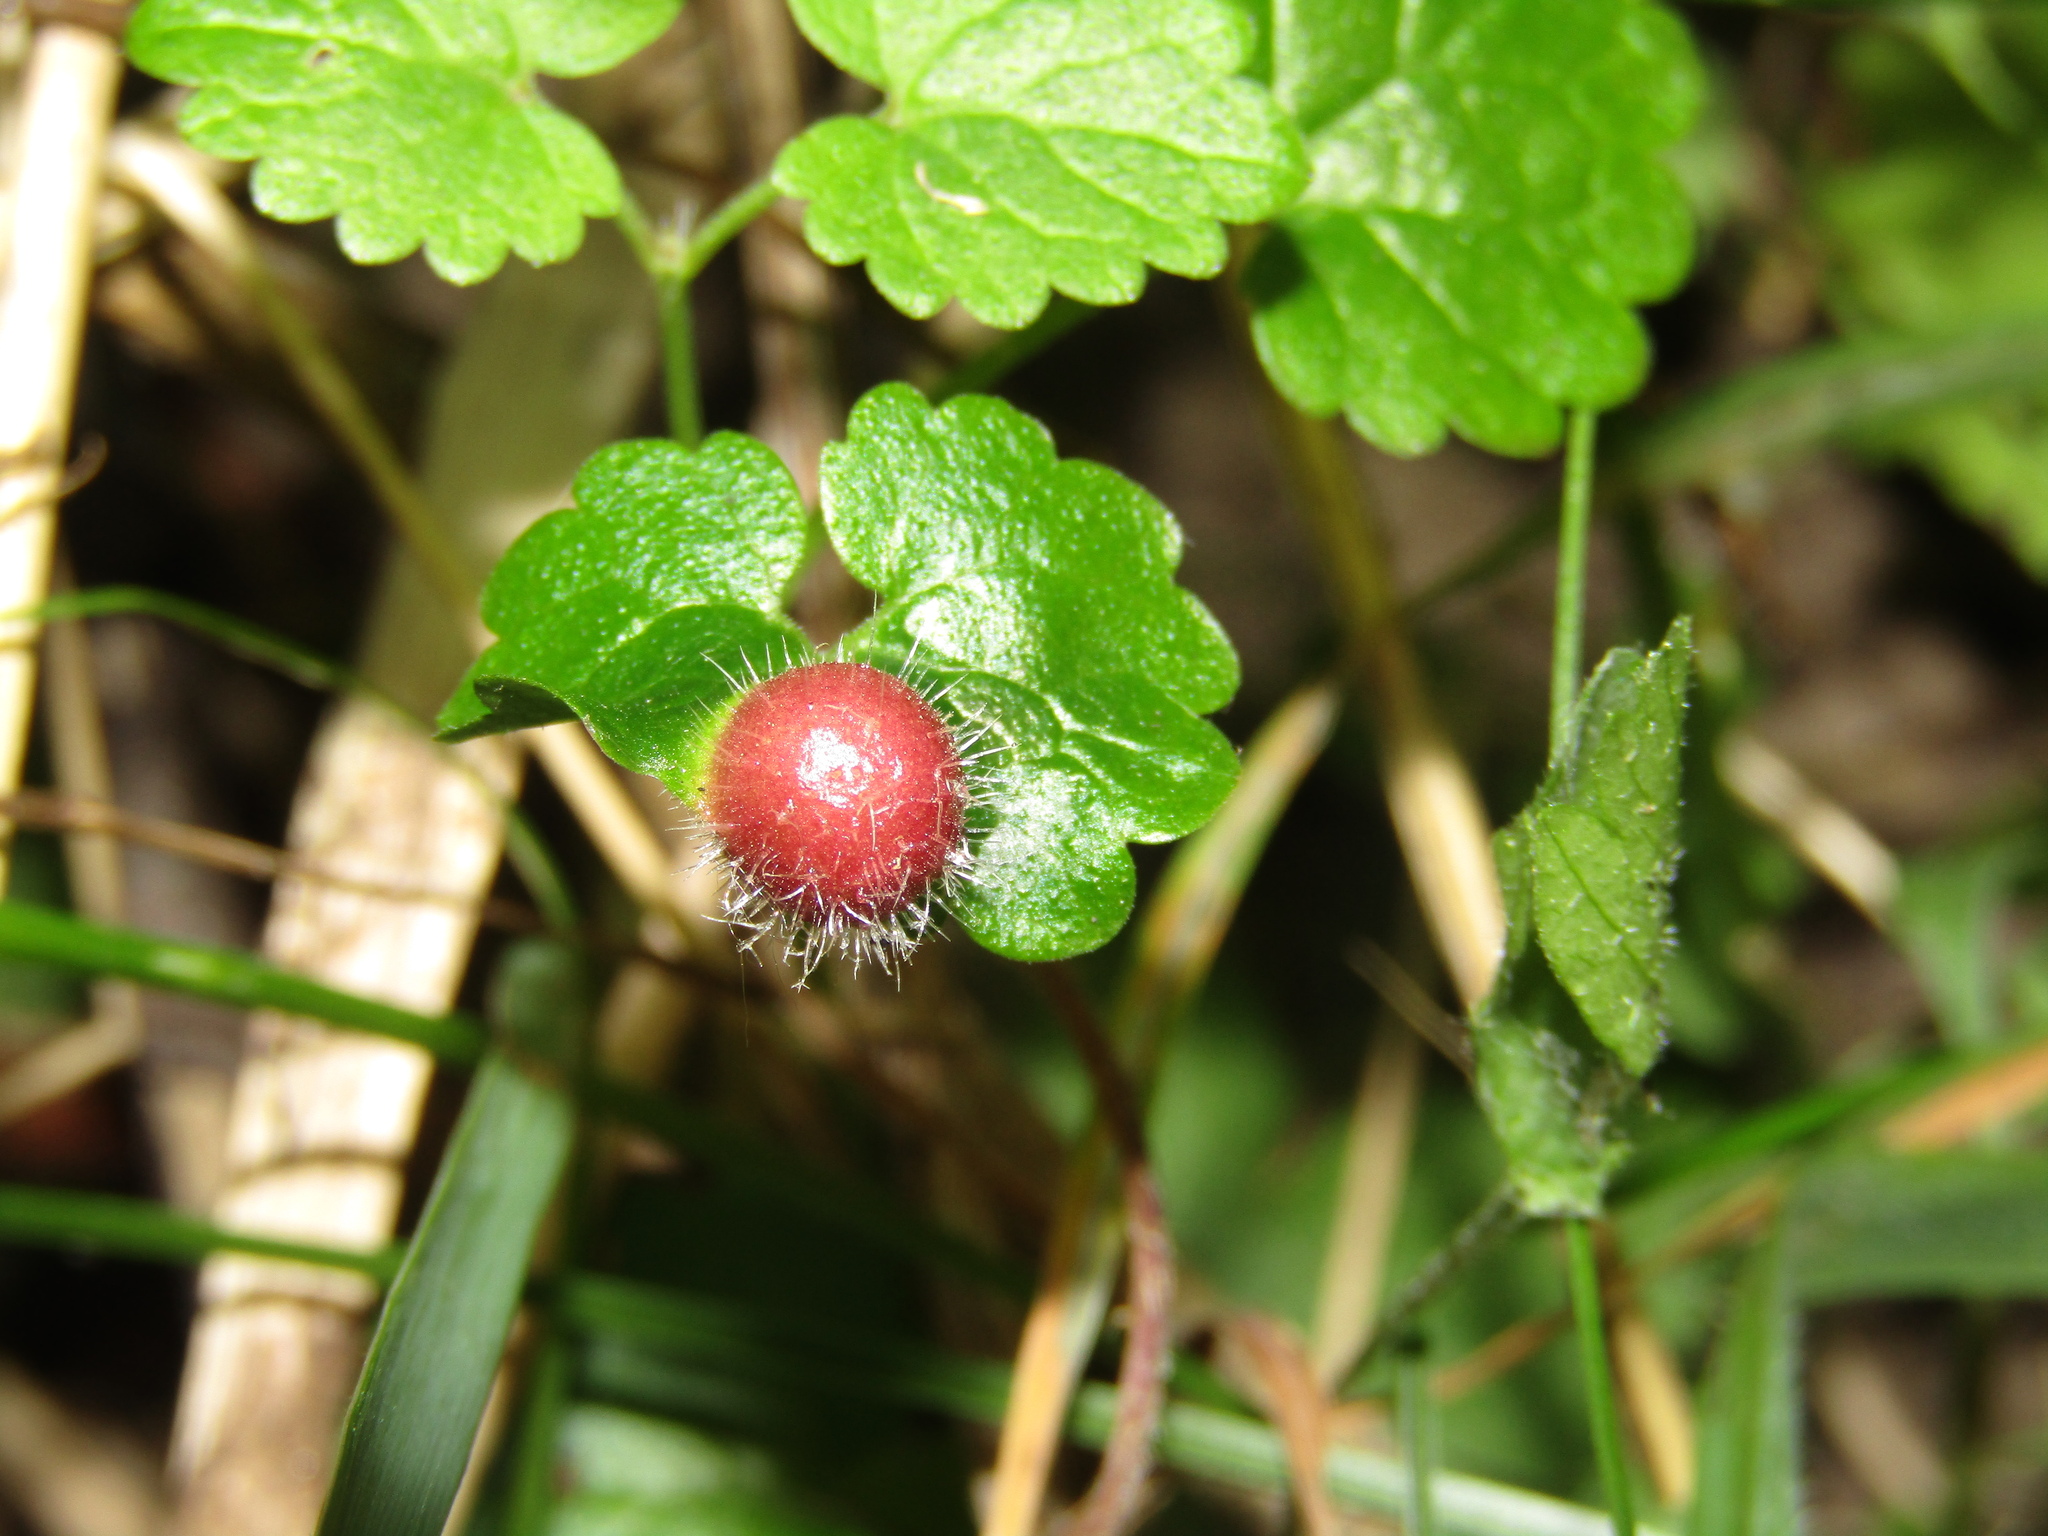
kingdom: Animalia
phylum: Arthropoda
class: Insecta
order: Hymenoptera
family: Cynipidae
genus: Liposthenes
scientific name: Liposthenes glechomae
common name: Gall wasp
